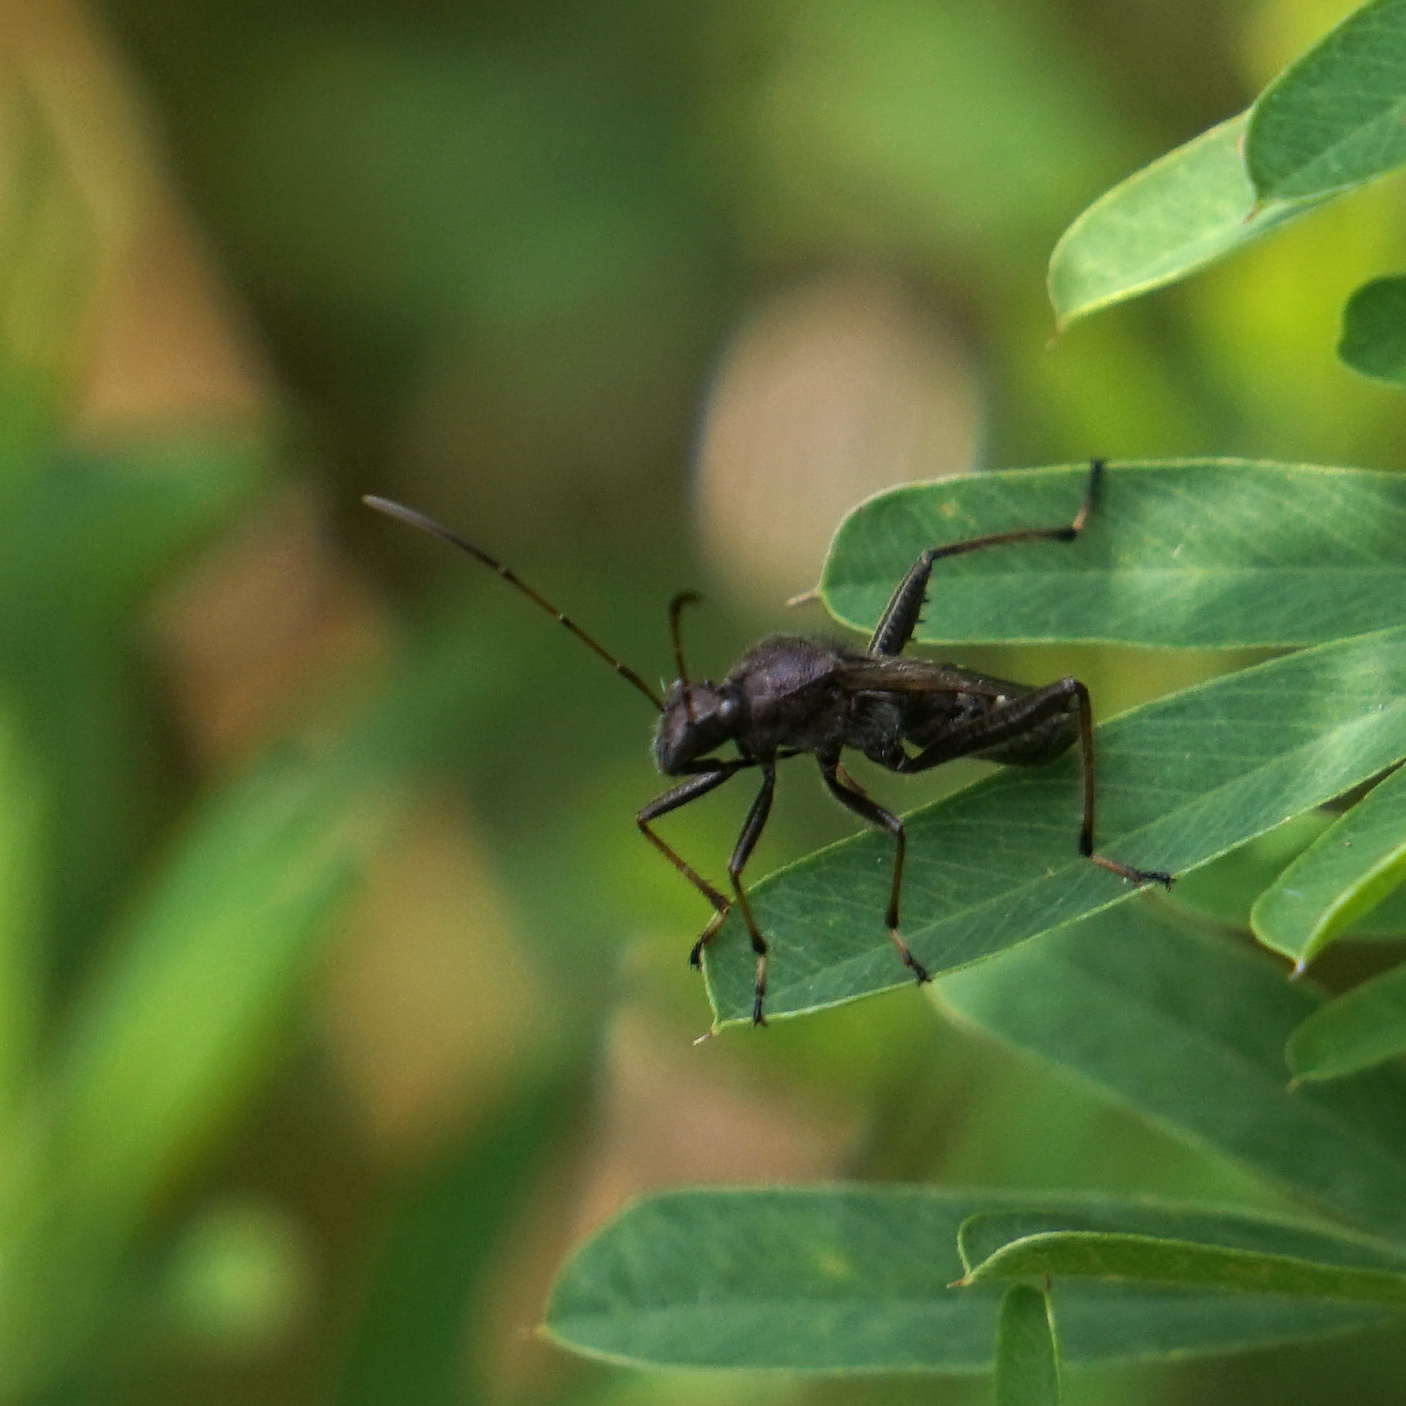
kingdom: Animalia
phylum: Arthropoda
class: Insecta
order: Hemiptera
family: Alydidae
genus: Alydus
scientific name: Alydus eurinus
